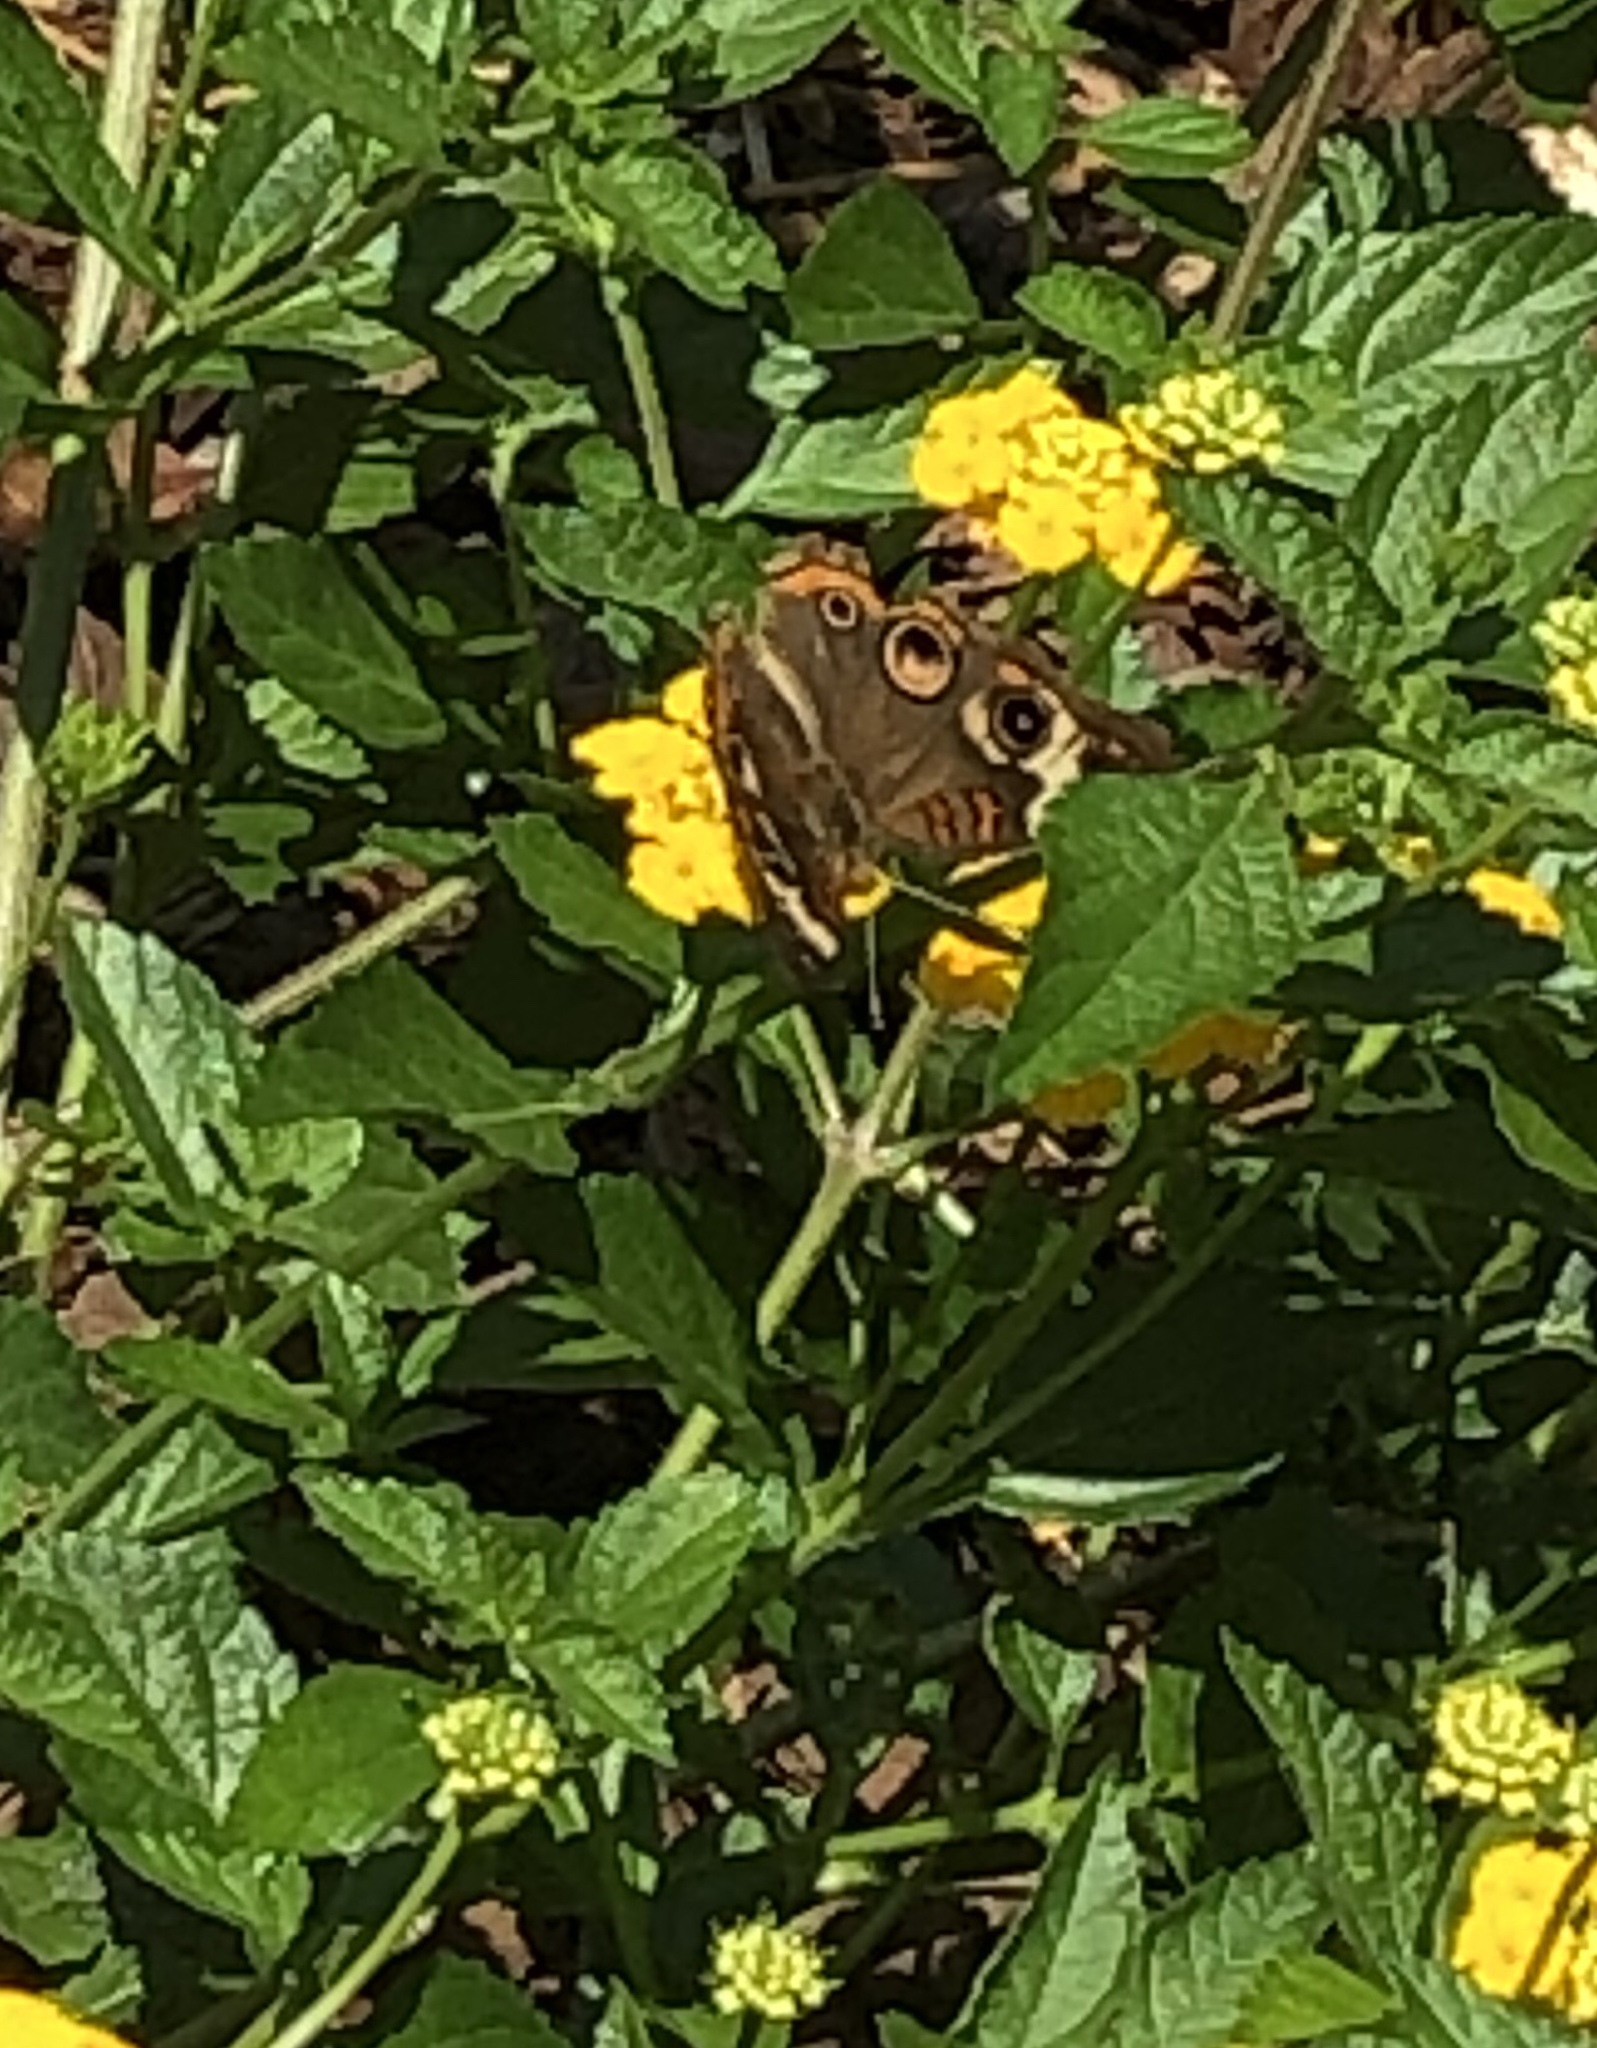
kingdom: Animalia
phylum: Arthropoda
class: Insecta
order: Lepidoptera
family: Nymphalidae
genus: Junonia
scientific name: Junonia coenia
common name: Common buckeye
